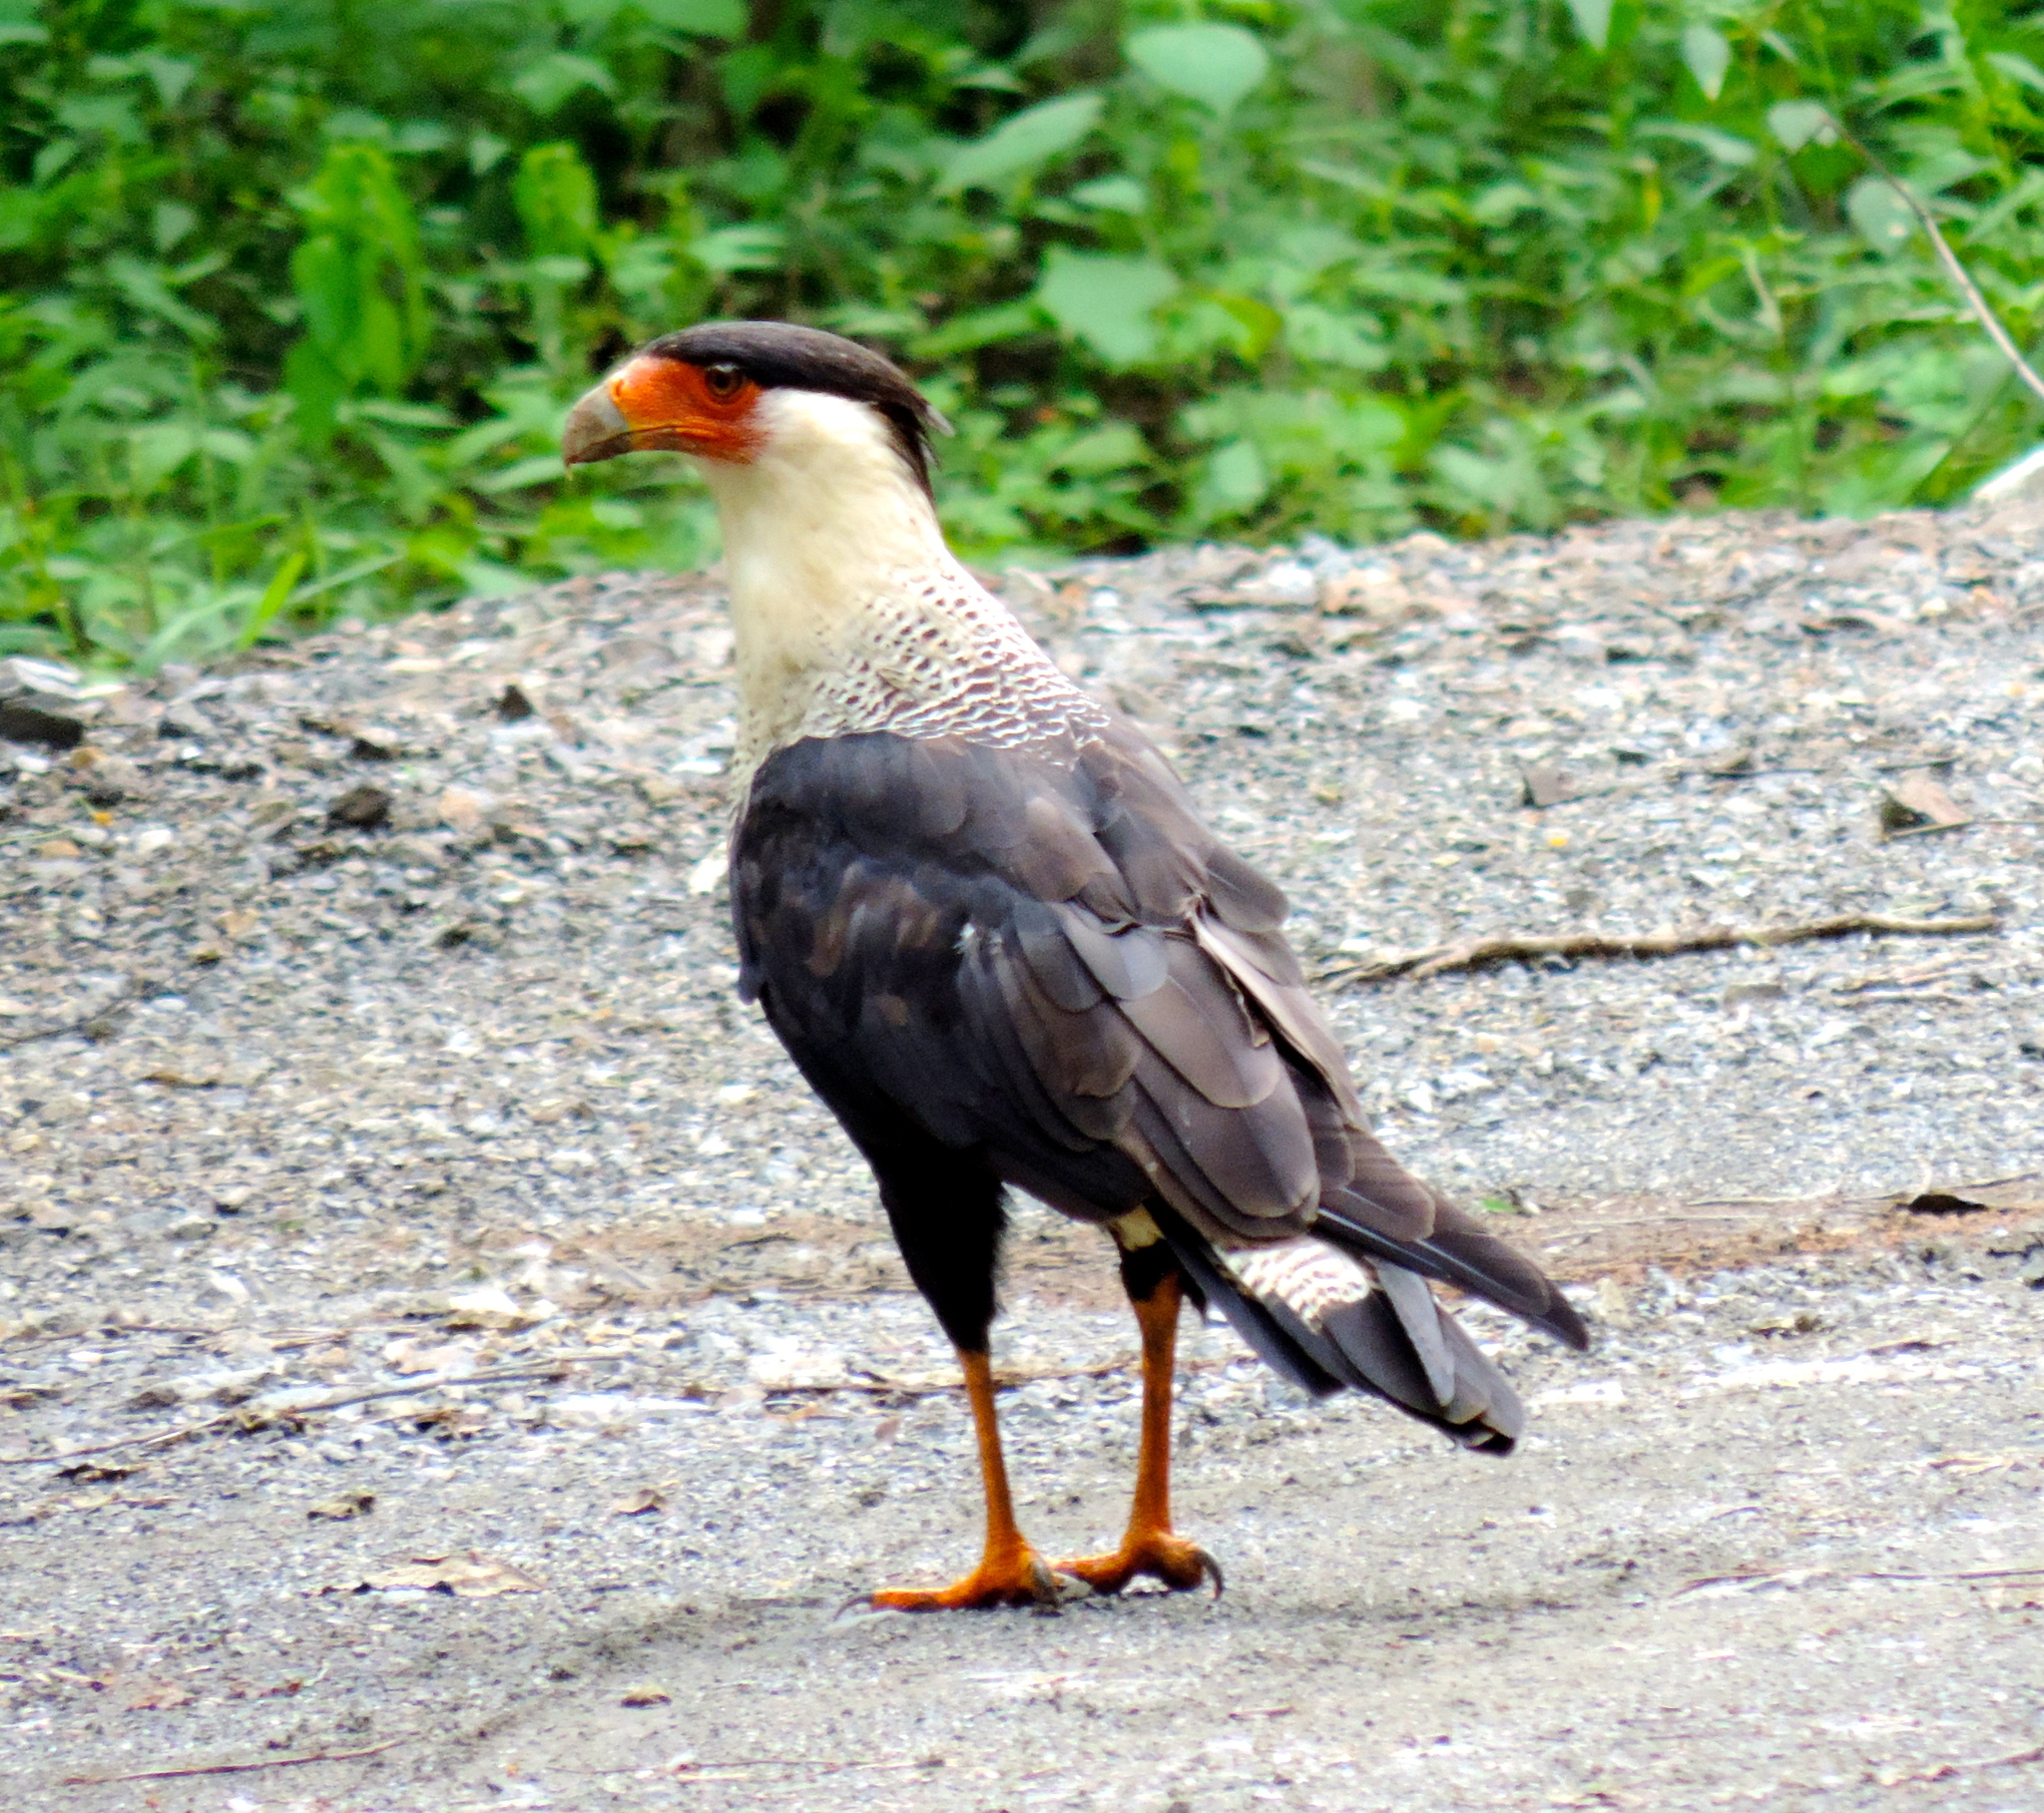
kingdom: Animalia
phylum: Chordata
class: Aves
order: Falconiformes
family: Falconidae
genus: Caracara
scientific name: Caracara plancus
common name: Southern caracara
